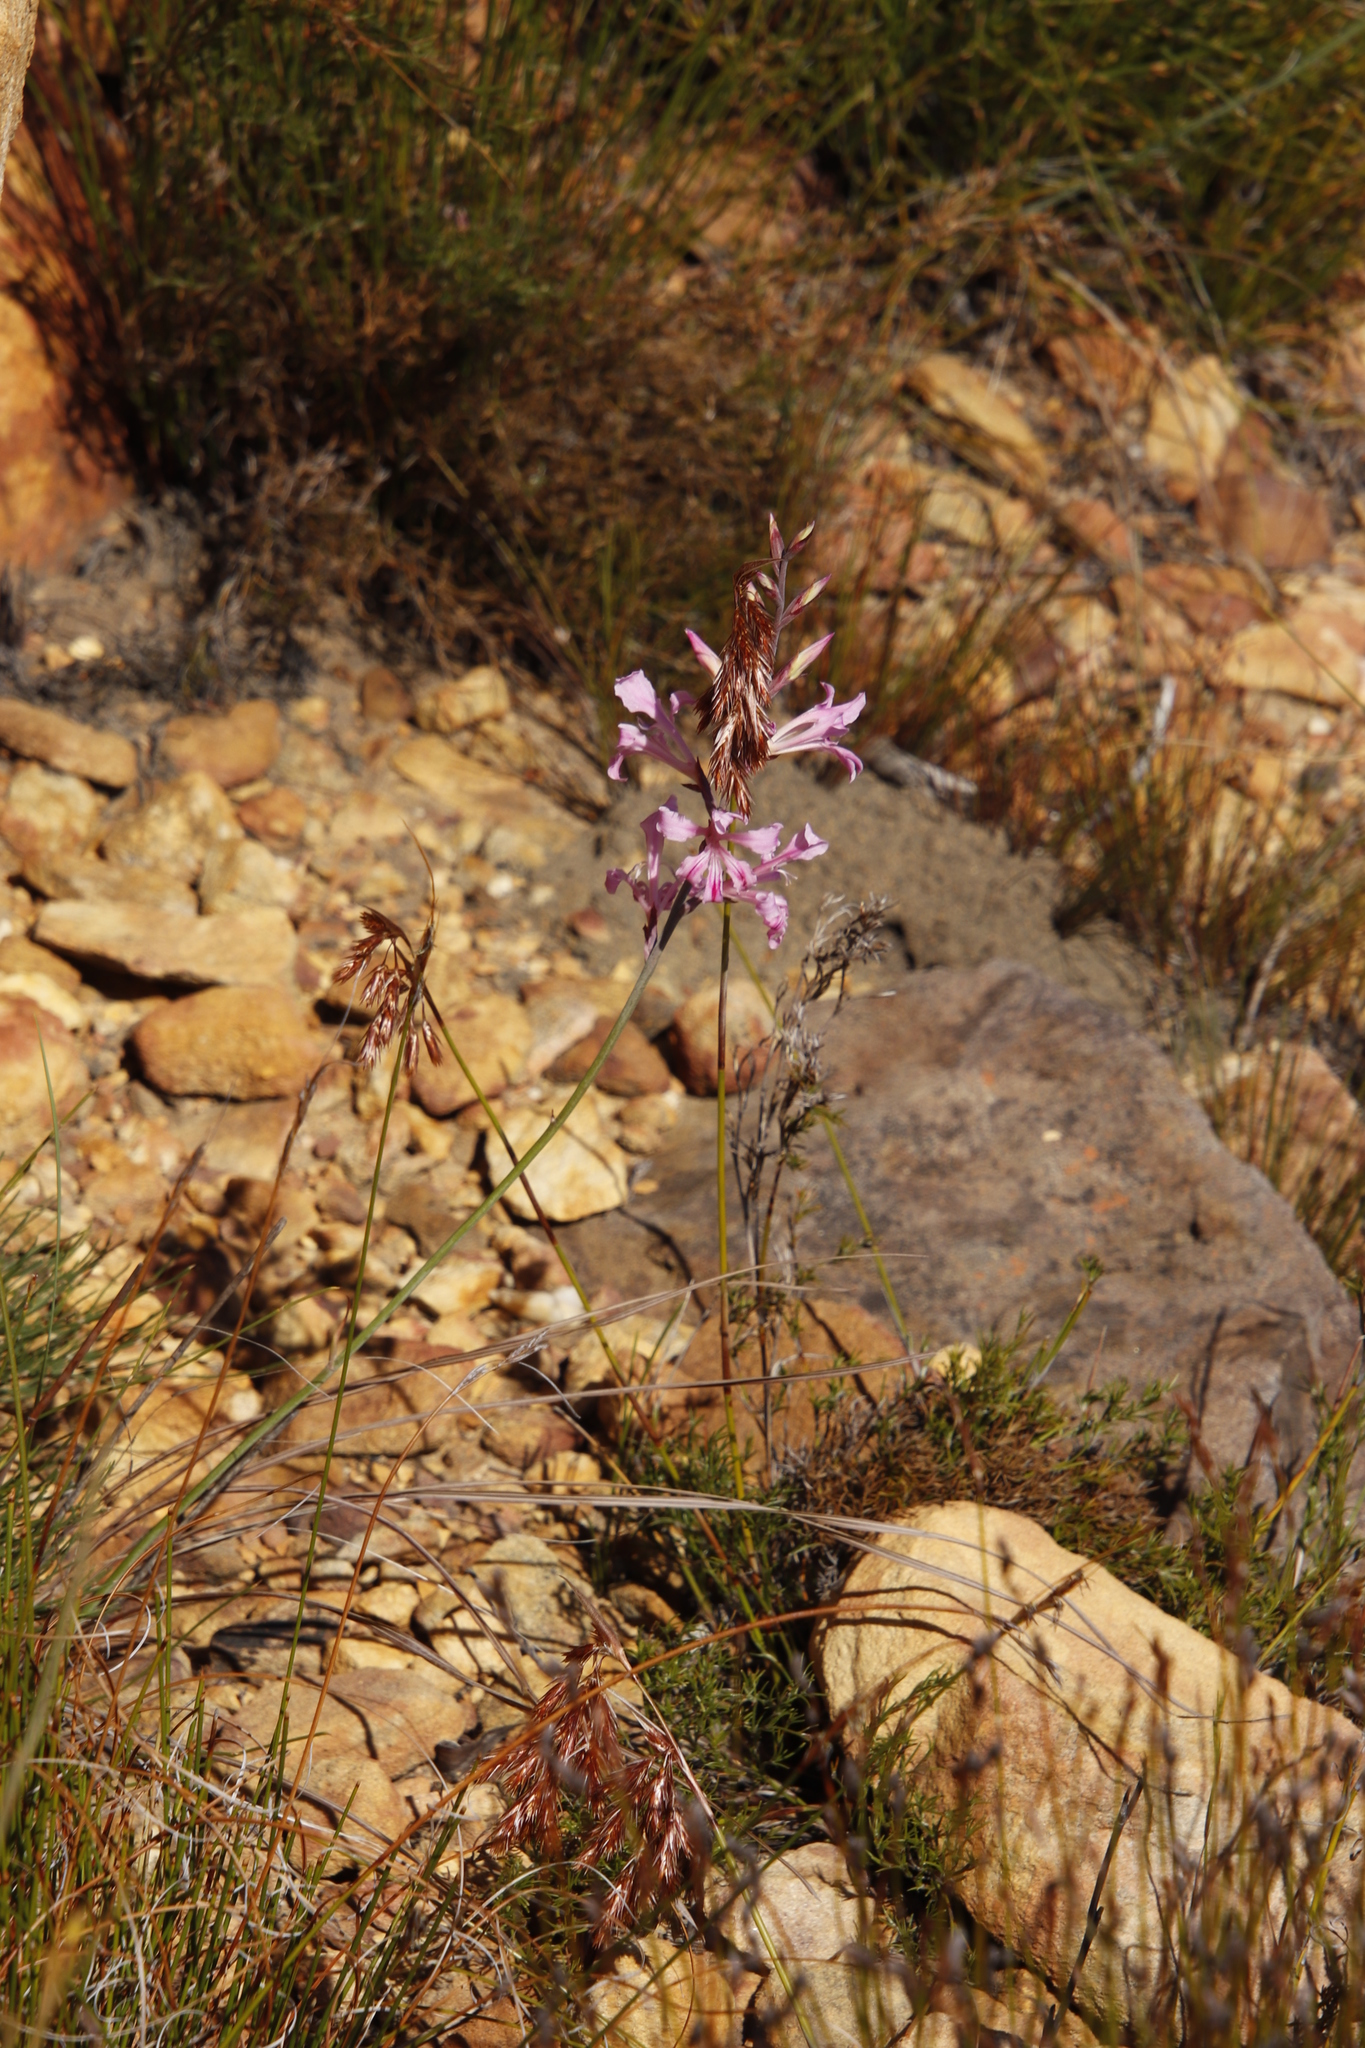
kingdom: Plantae
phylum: Tracheophyta
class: Liliopsida
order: Asparagales
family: Iridaceae
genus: Tritoniopsis
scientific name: Tritoniopsis lata
